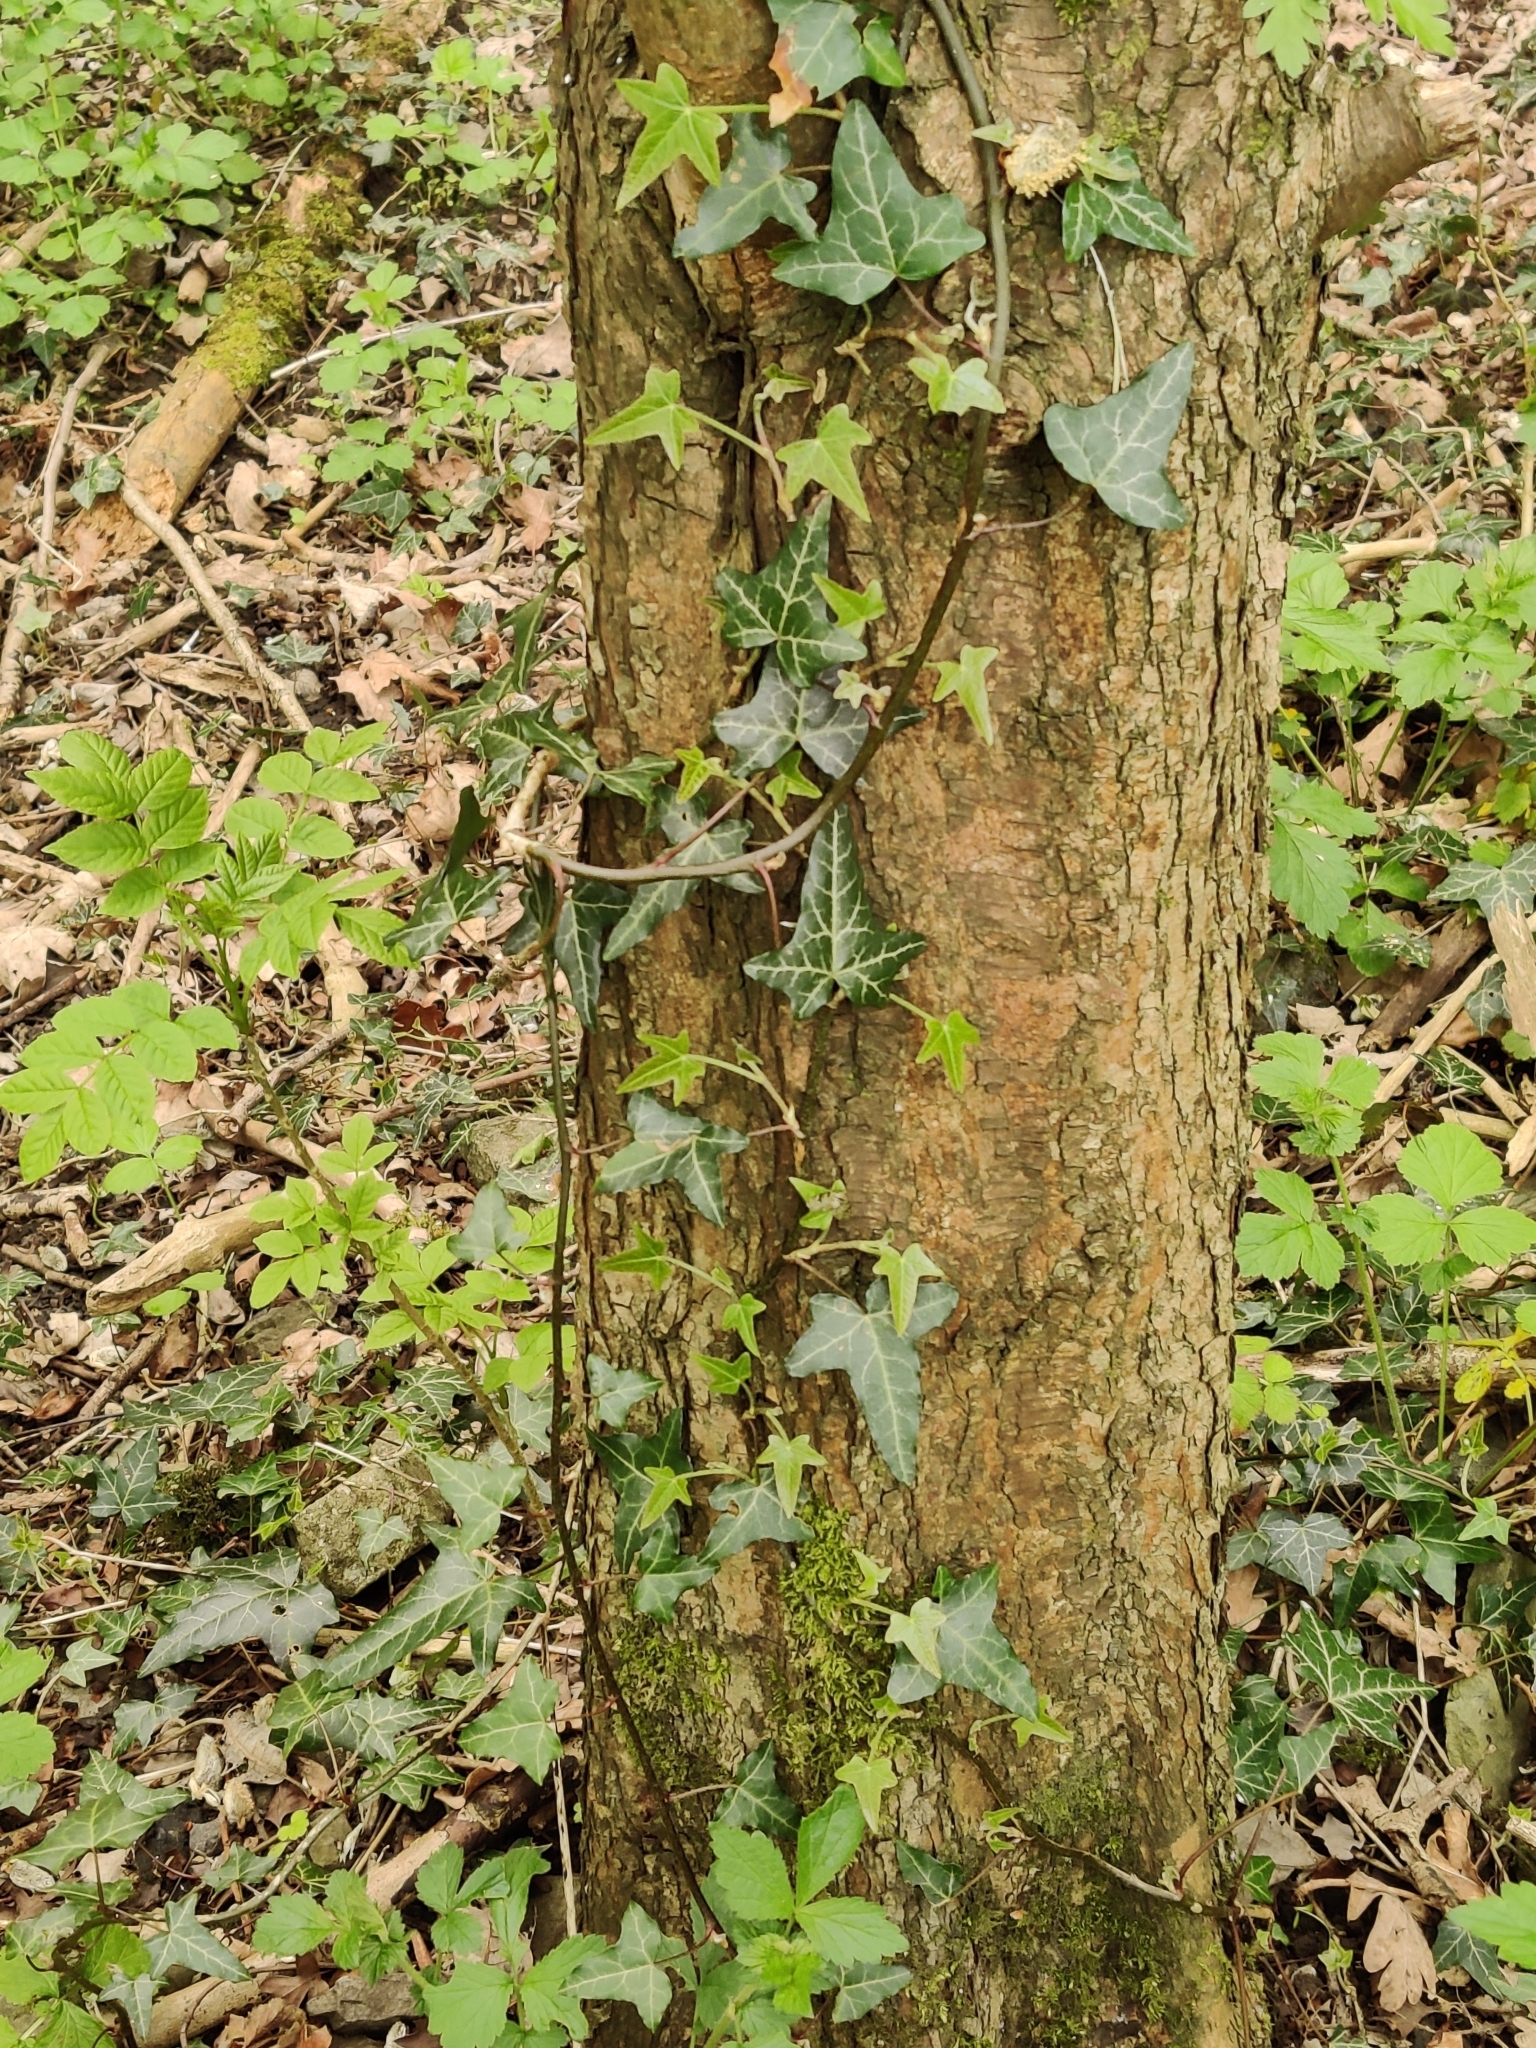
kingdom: Plantae
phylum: Tracheophyta
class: Magnoliopsida
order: Apiales
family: Araliaceae
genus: Hedera
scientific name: Hedera helix
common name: Ivy
